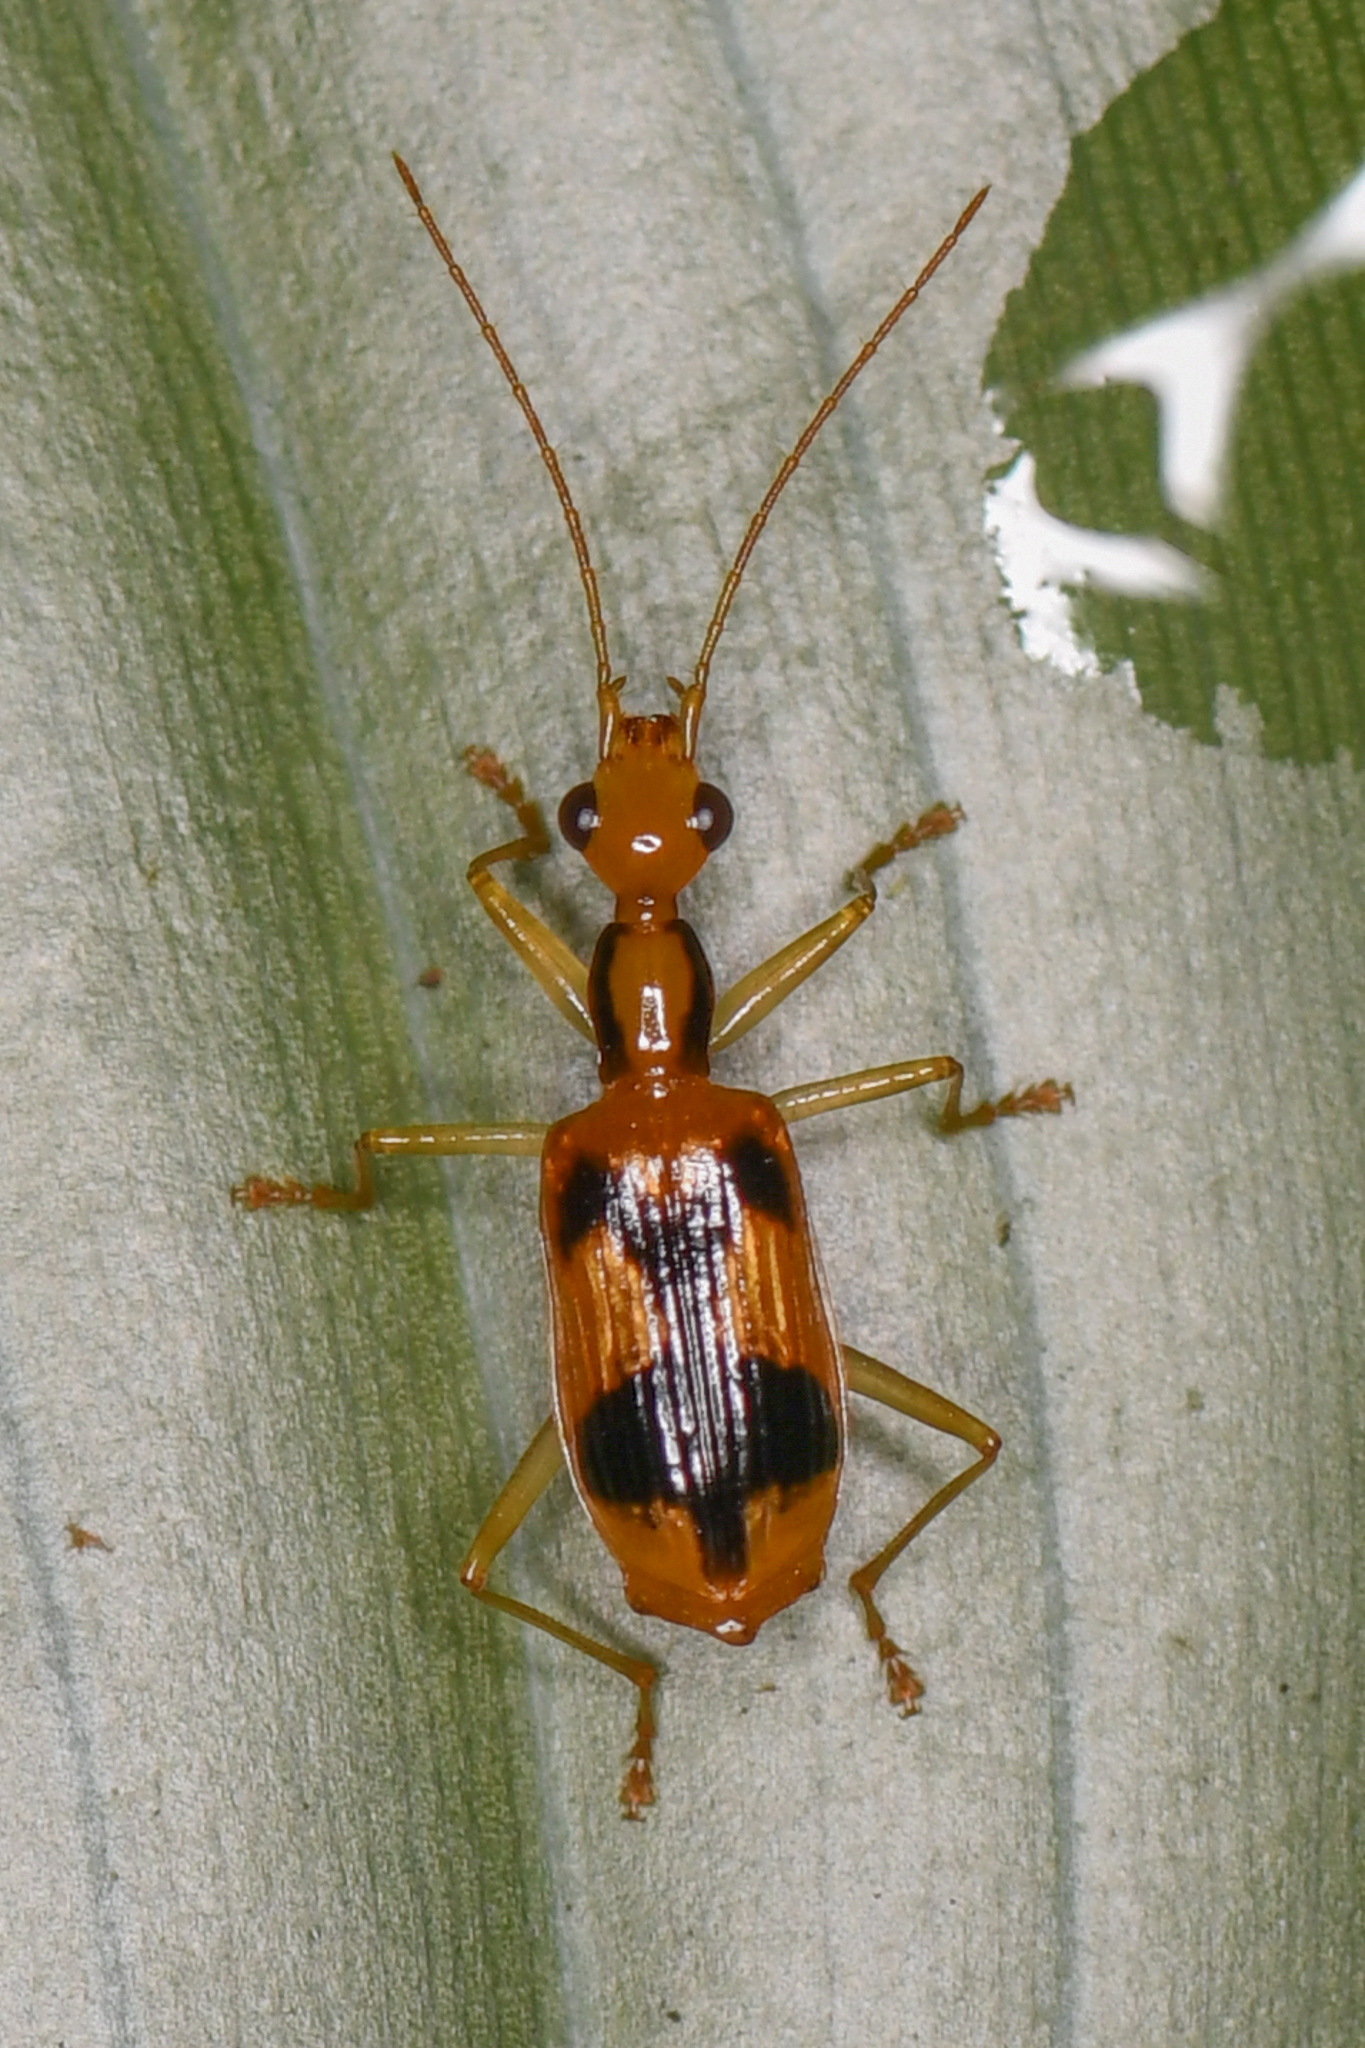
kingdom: Animalia
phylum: Arthropoda
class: Insecta
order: Coleoptera
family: Carabidae
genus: Calophaena
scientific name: Calophaena costaricensis
